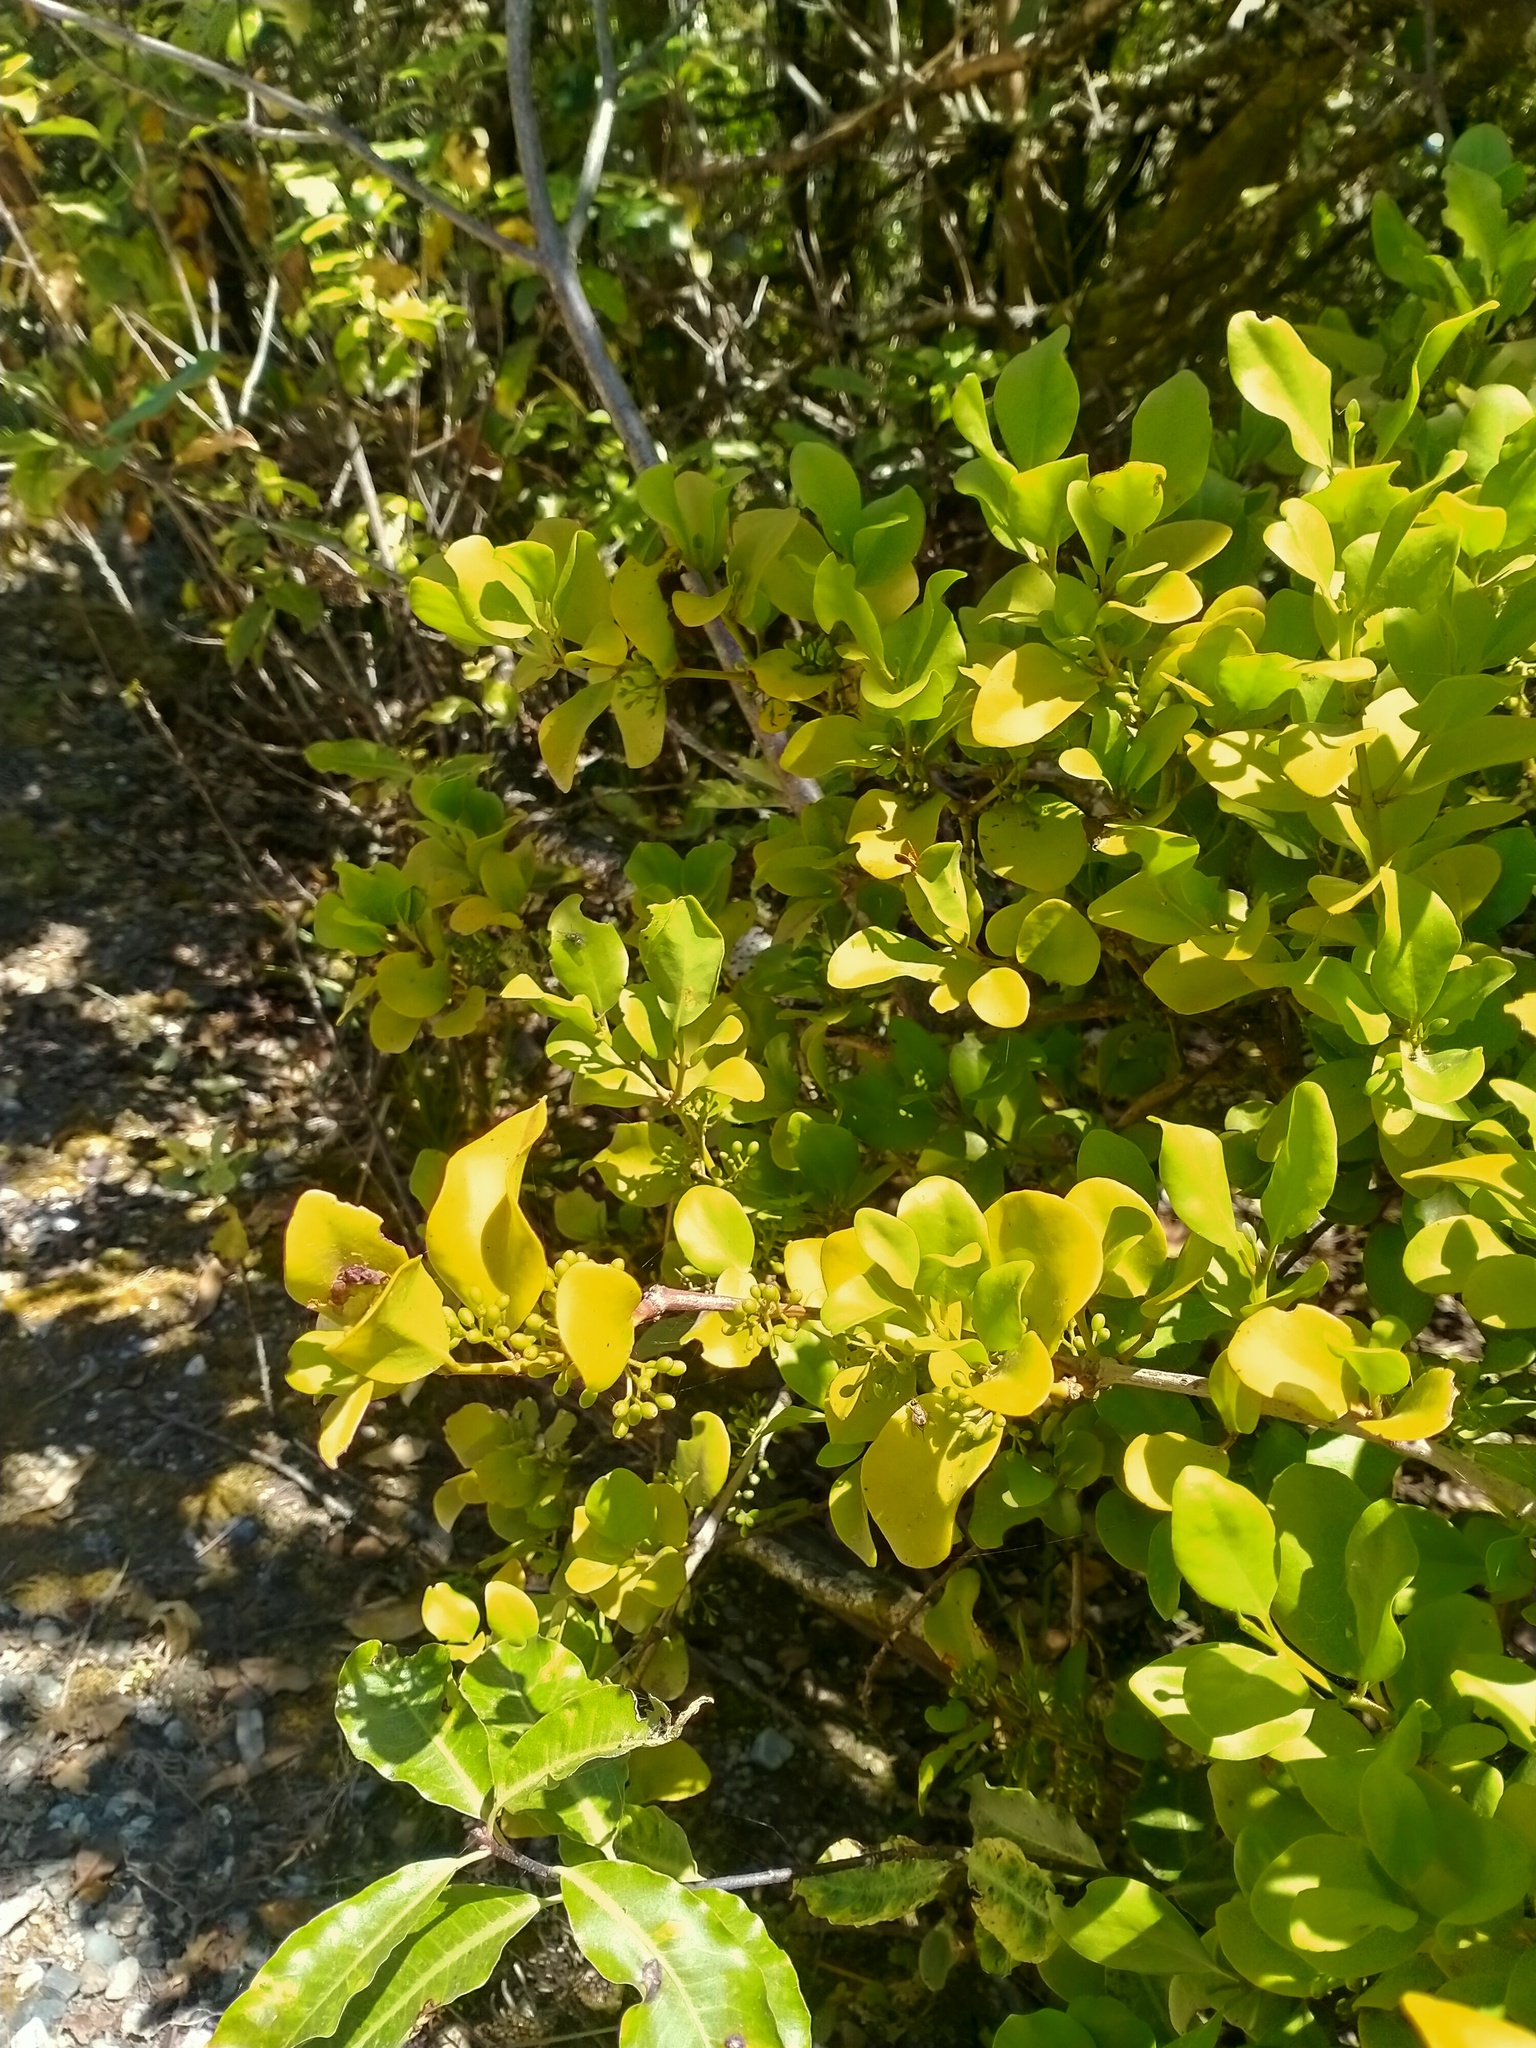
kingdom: Plantae
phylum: Tracheophyta
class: Magnoliopsida
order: Santalales
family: Loranthaceae
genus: Ileostylus
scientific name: Ileostylus micranthus
